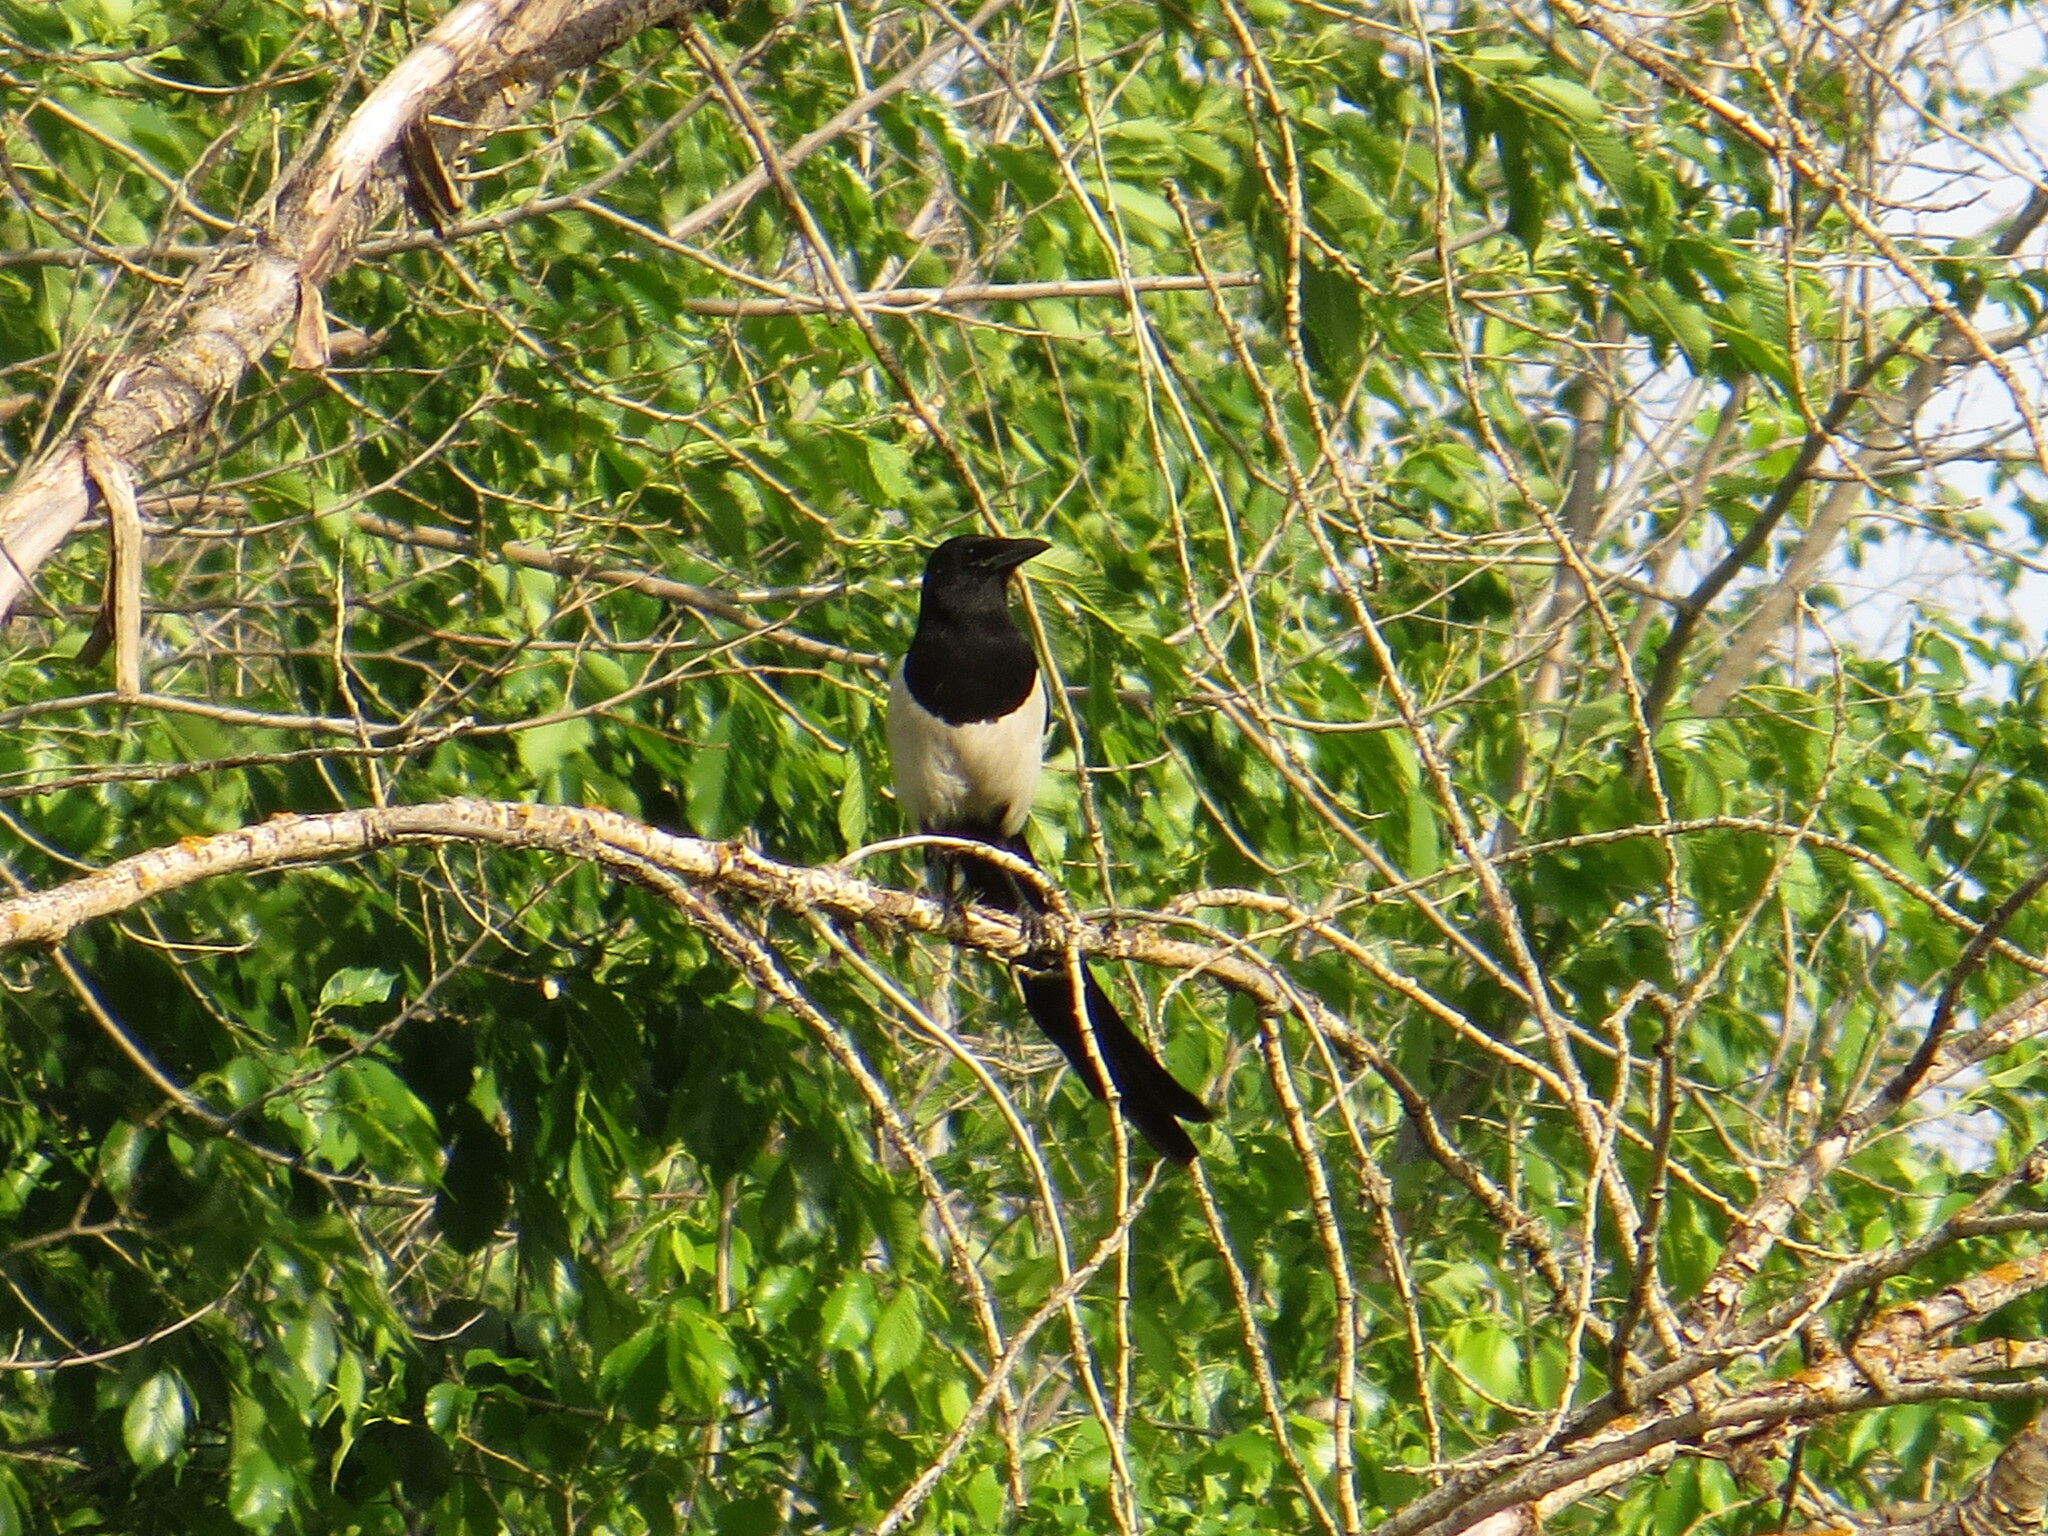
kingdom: Animalia
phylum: Chordata
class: Aves
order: Passeriformes
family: Corvidae
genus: Pica
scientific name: Pica pica
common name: Eurasian magpie
